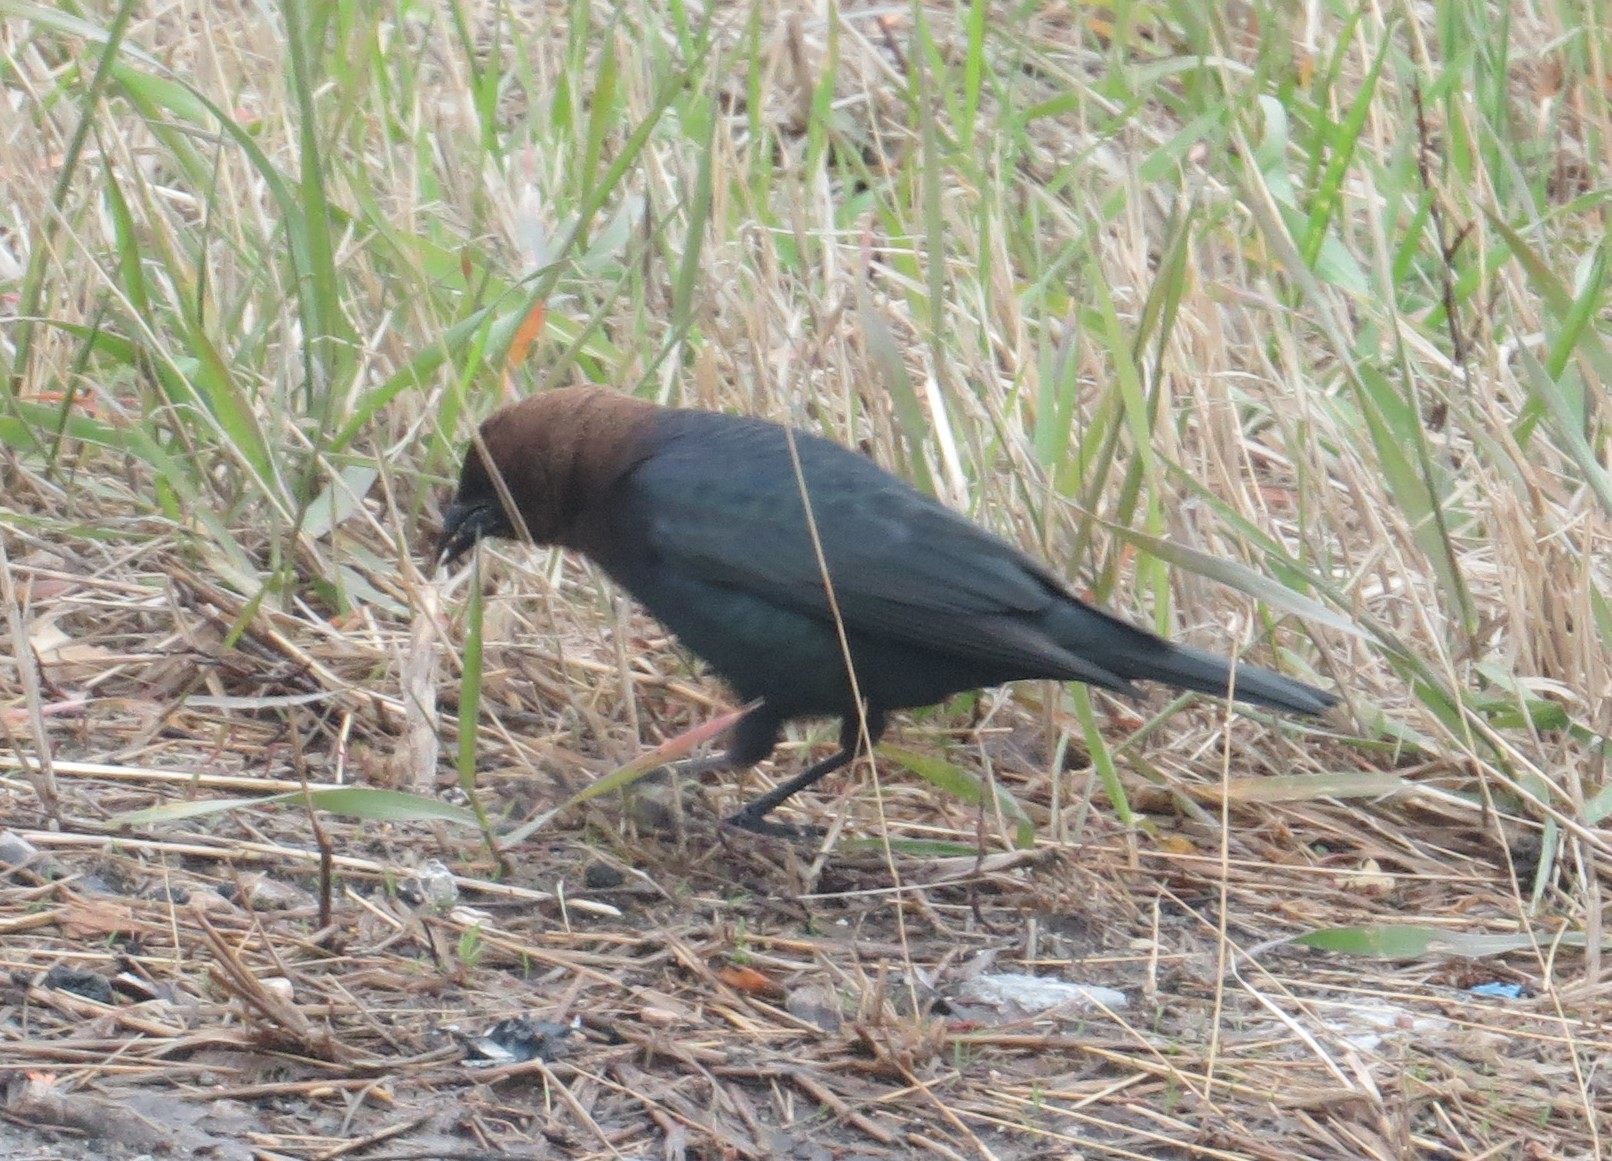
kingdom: Animalia
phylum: Chordata
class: Aves
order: Passeriformes
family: Icteridae
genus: Molothrus
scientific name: Molothrus ater
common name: Brown-headed cowbird
